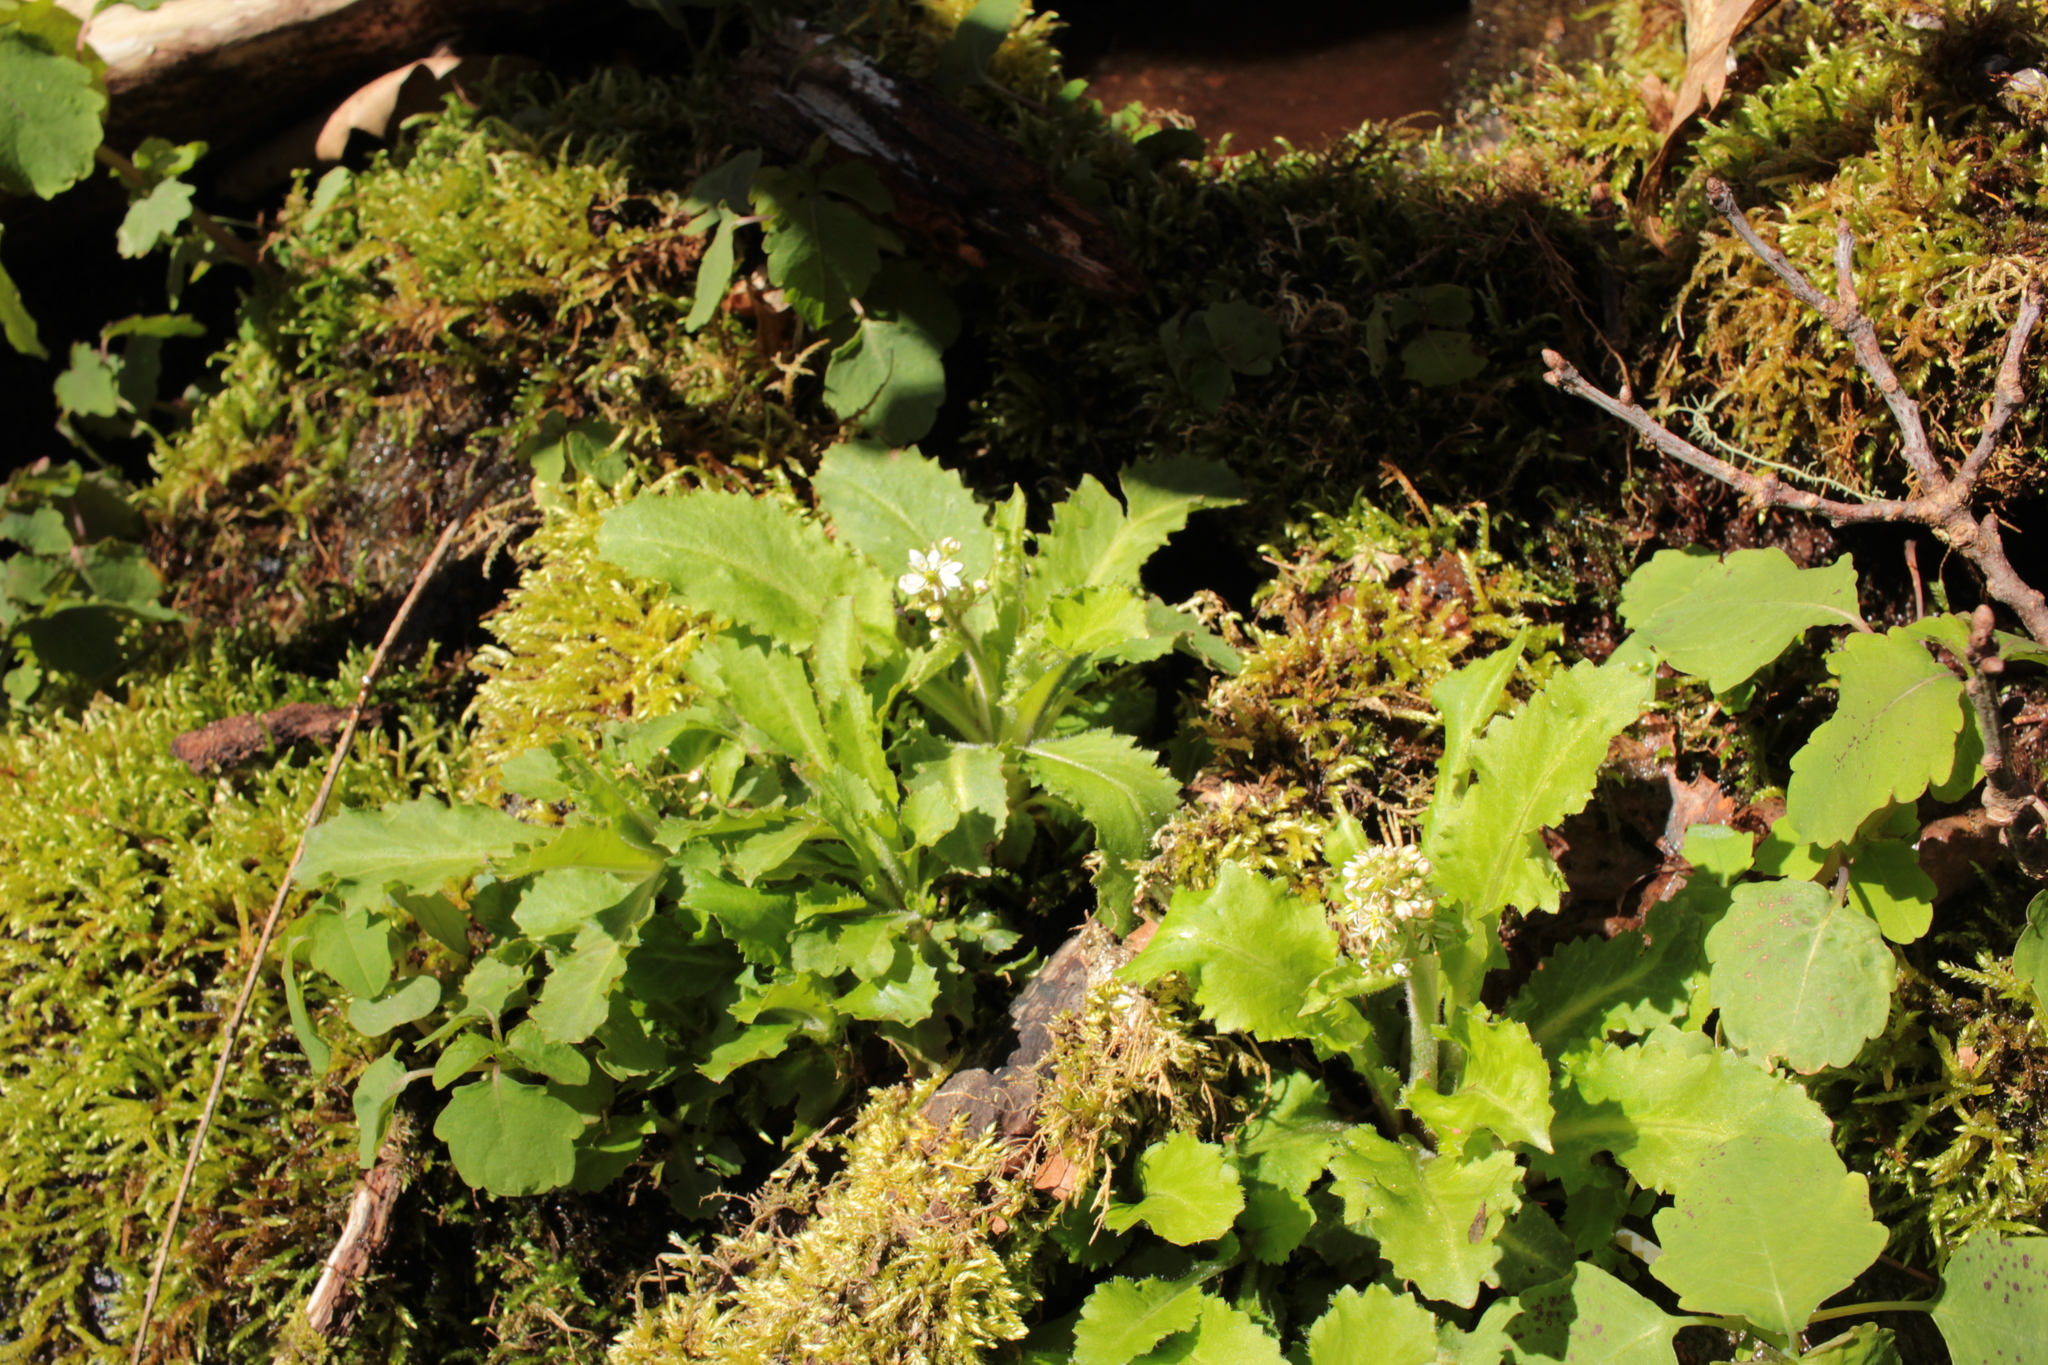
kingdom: Plantae
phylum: Tracheophyta
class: Magnoliopsida
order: Saxifragales
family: Saxifragaceae
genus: Micranthes
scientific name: Micranthes micranthidifolia
